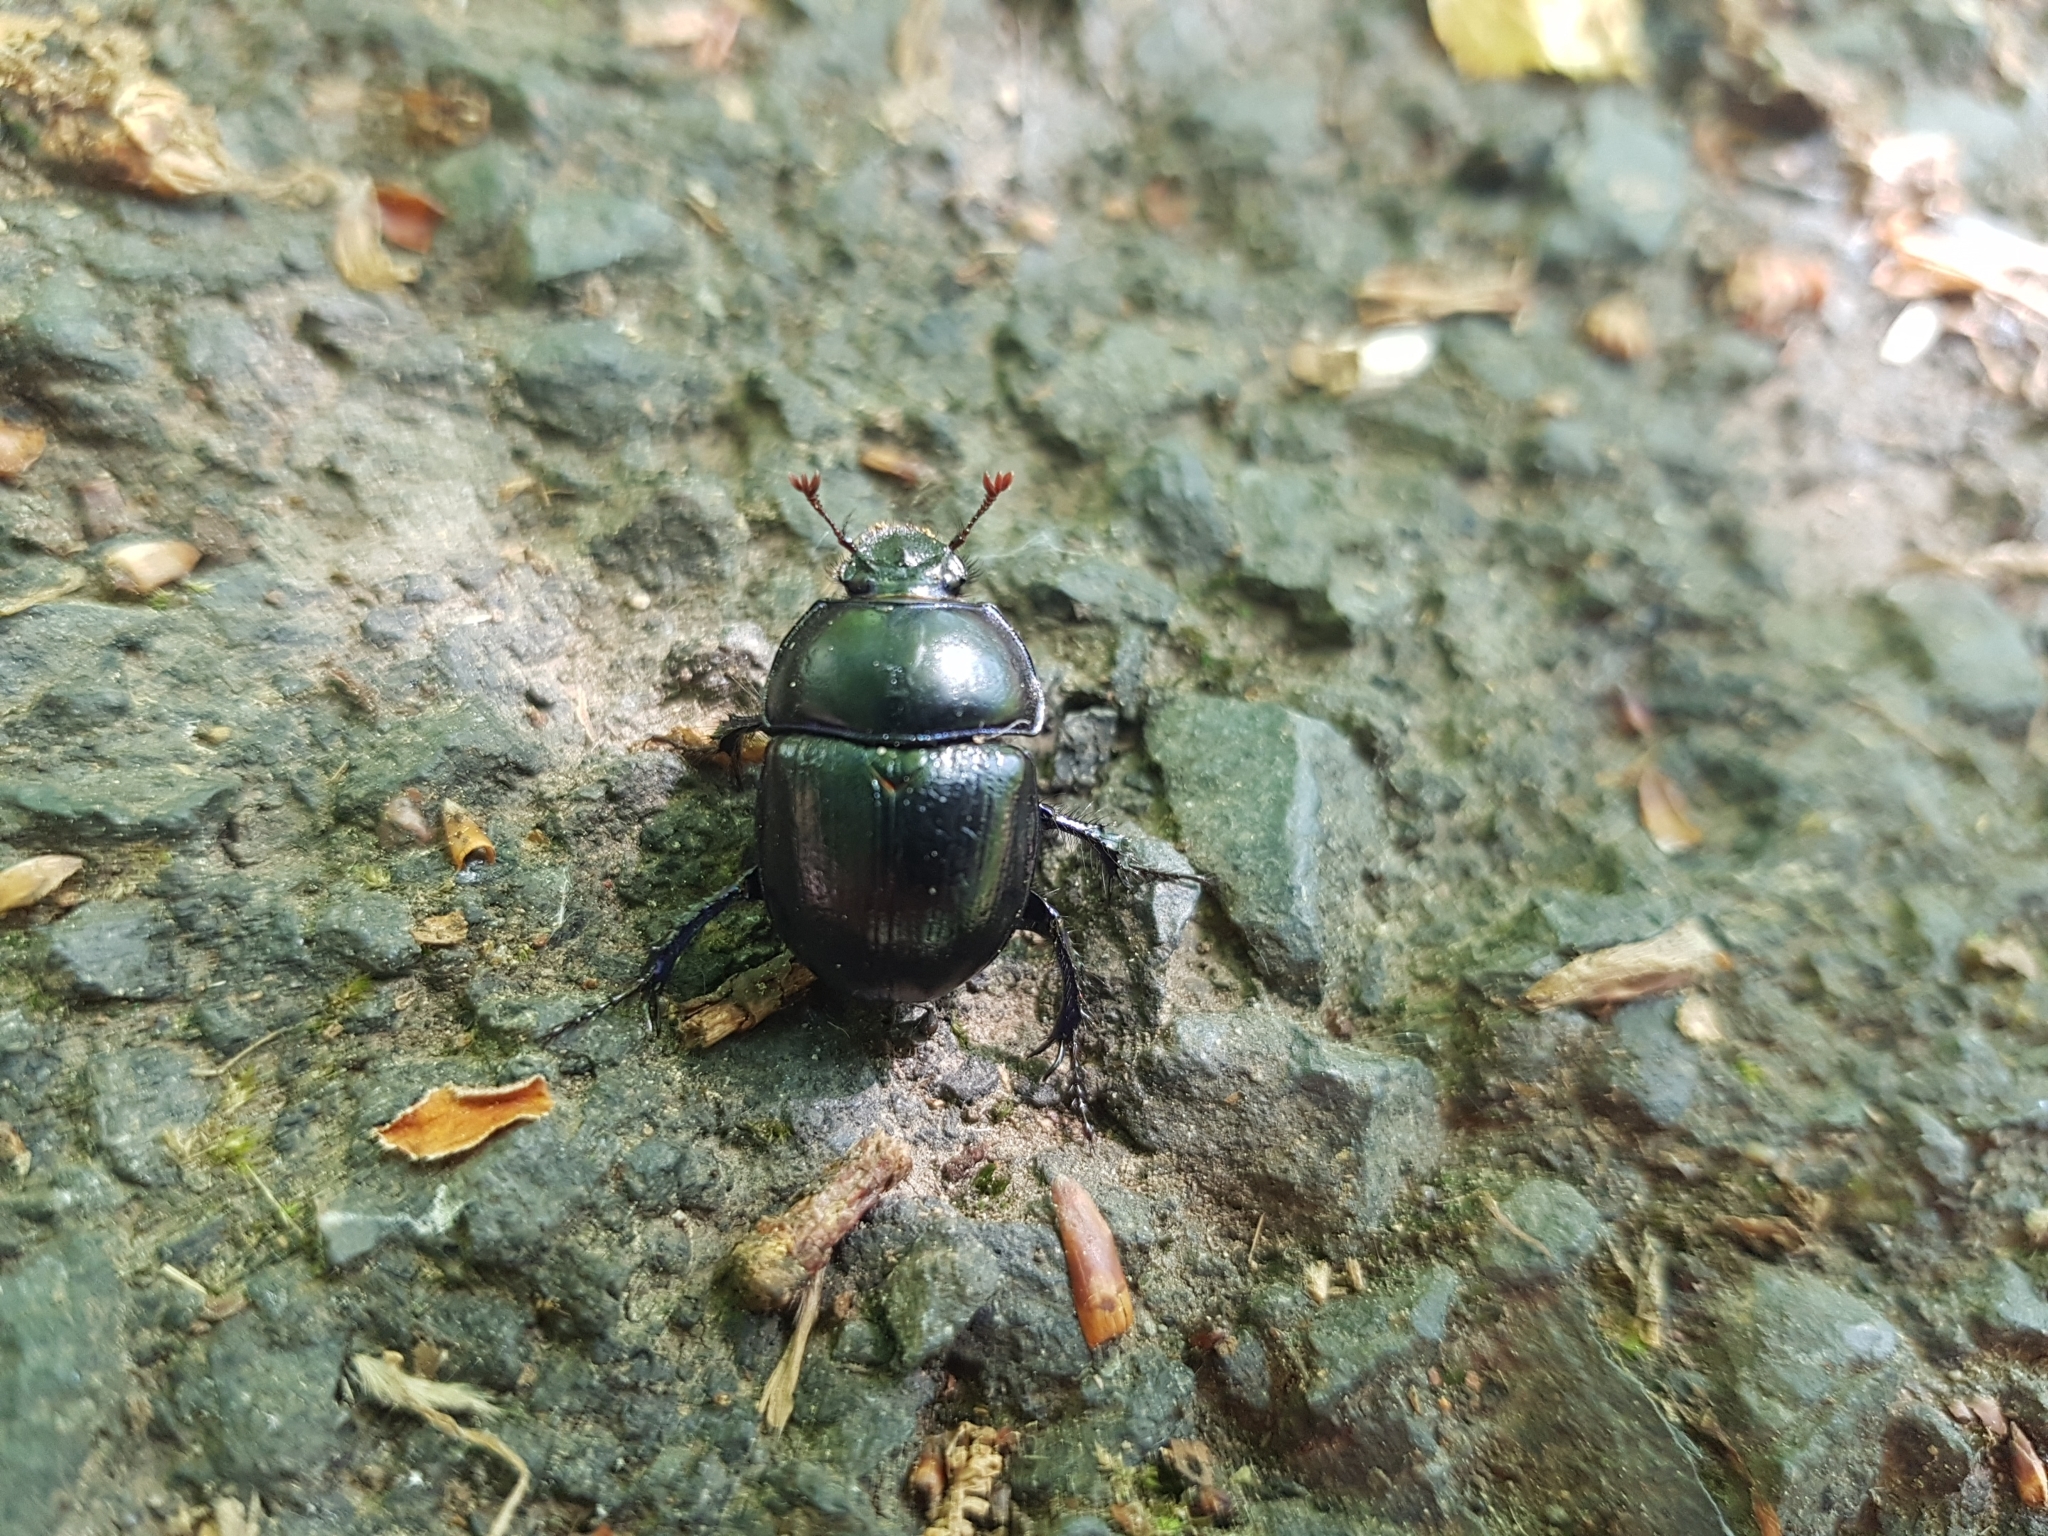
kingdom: Animalia
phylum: Arthropoda
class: Insecta
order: Coleoptera
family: Geotrupidae
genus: Anoplotrupes
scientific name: Anoplotrupes stercorosus
